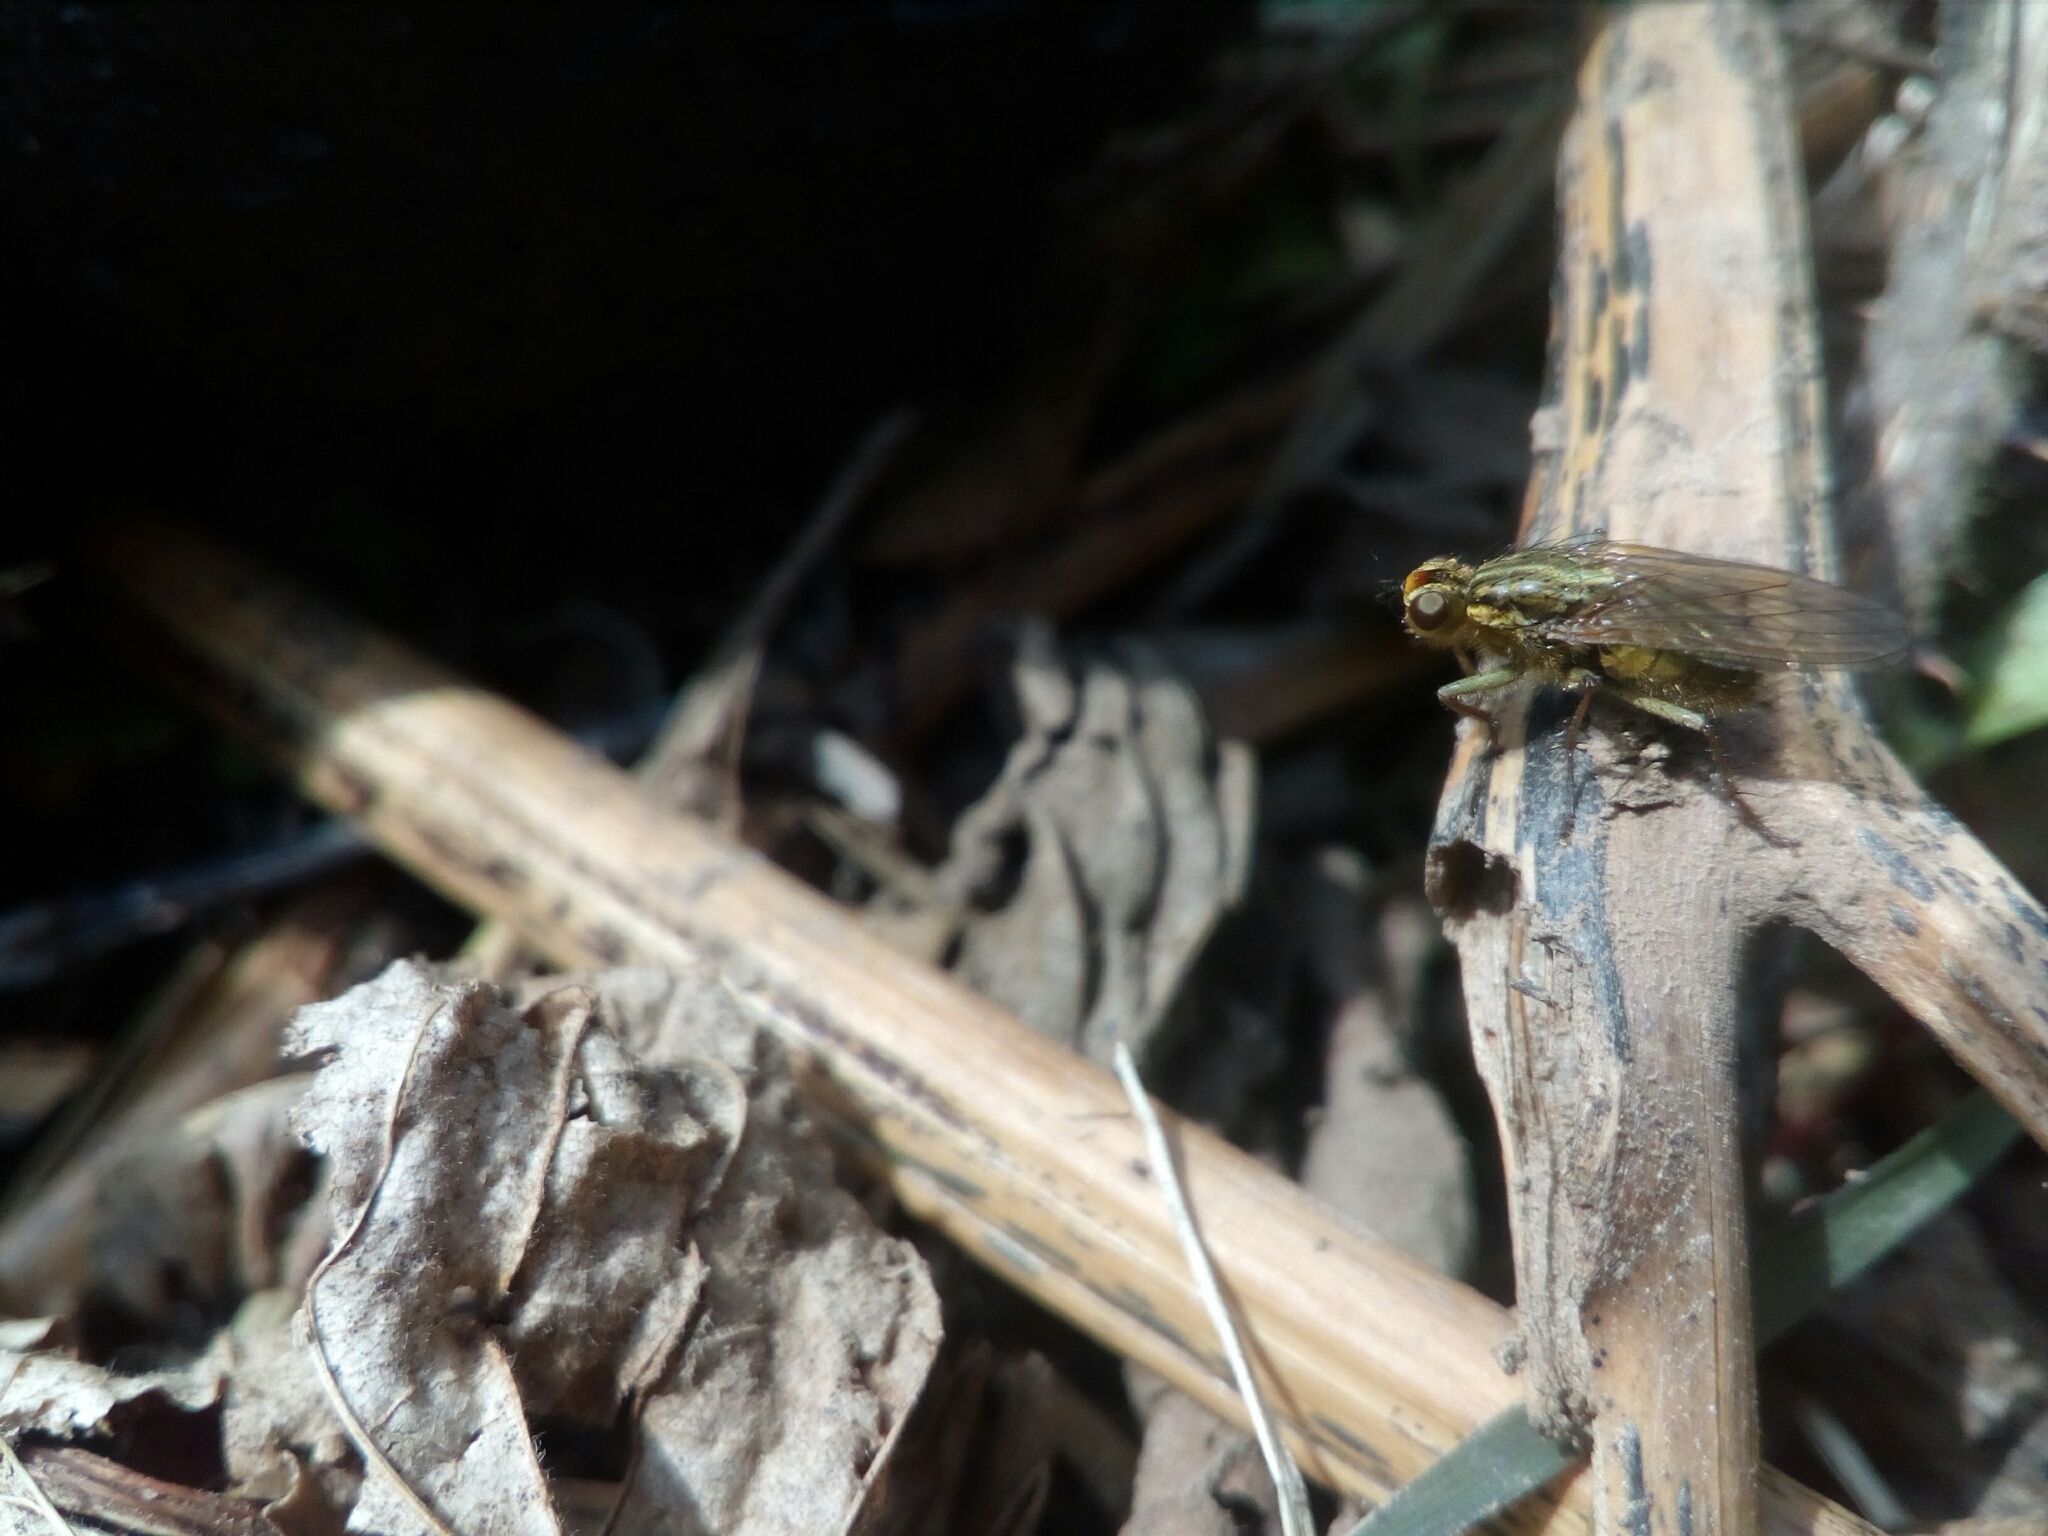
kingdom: Animalia
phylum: Arthropoda
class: Insecta
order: Diptera
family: Scathophagidae
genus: Scathophaga
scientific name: Scathophaga stercoraria
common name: Yellow dung fly
